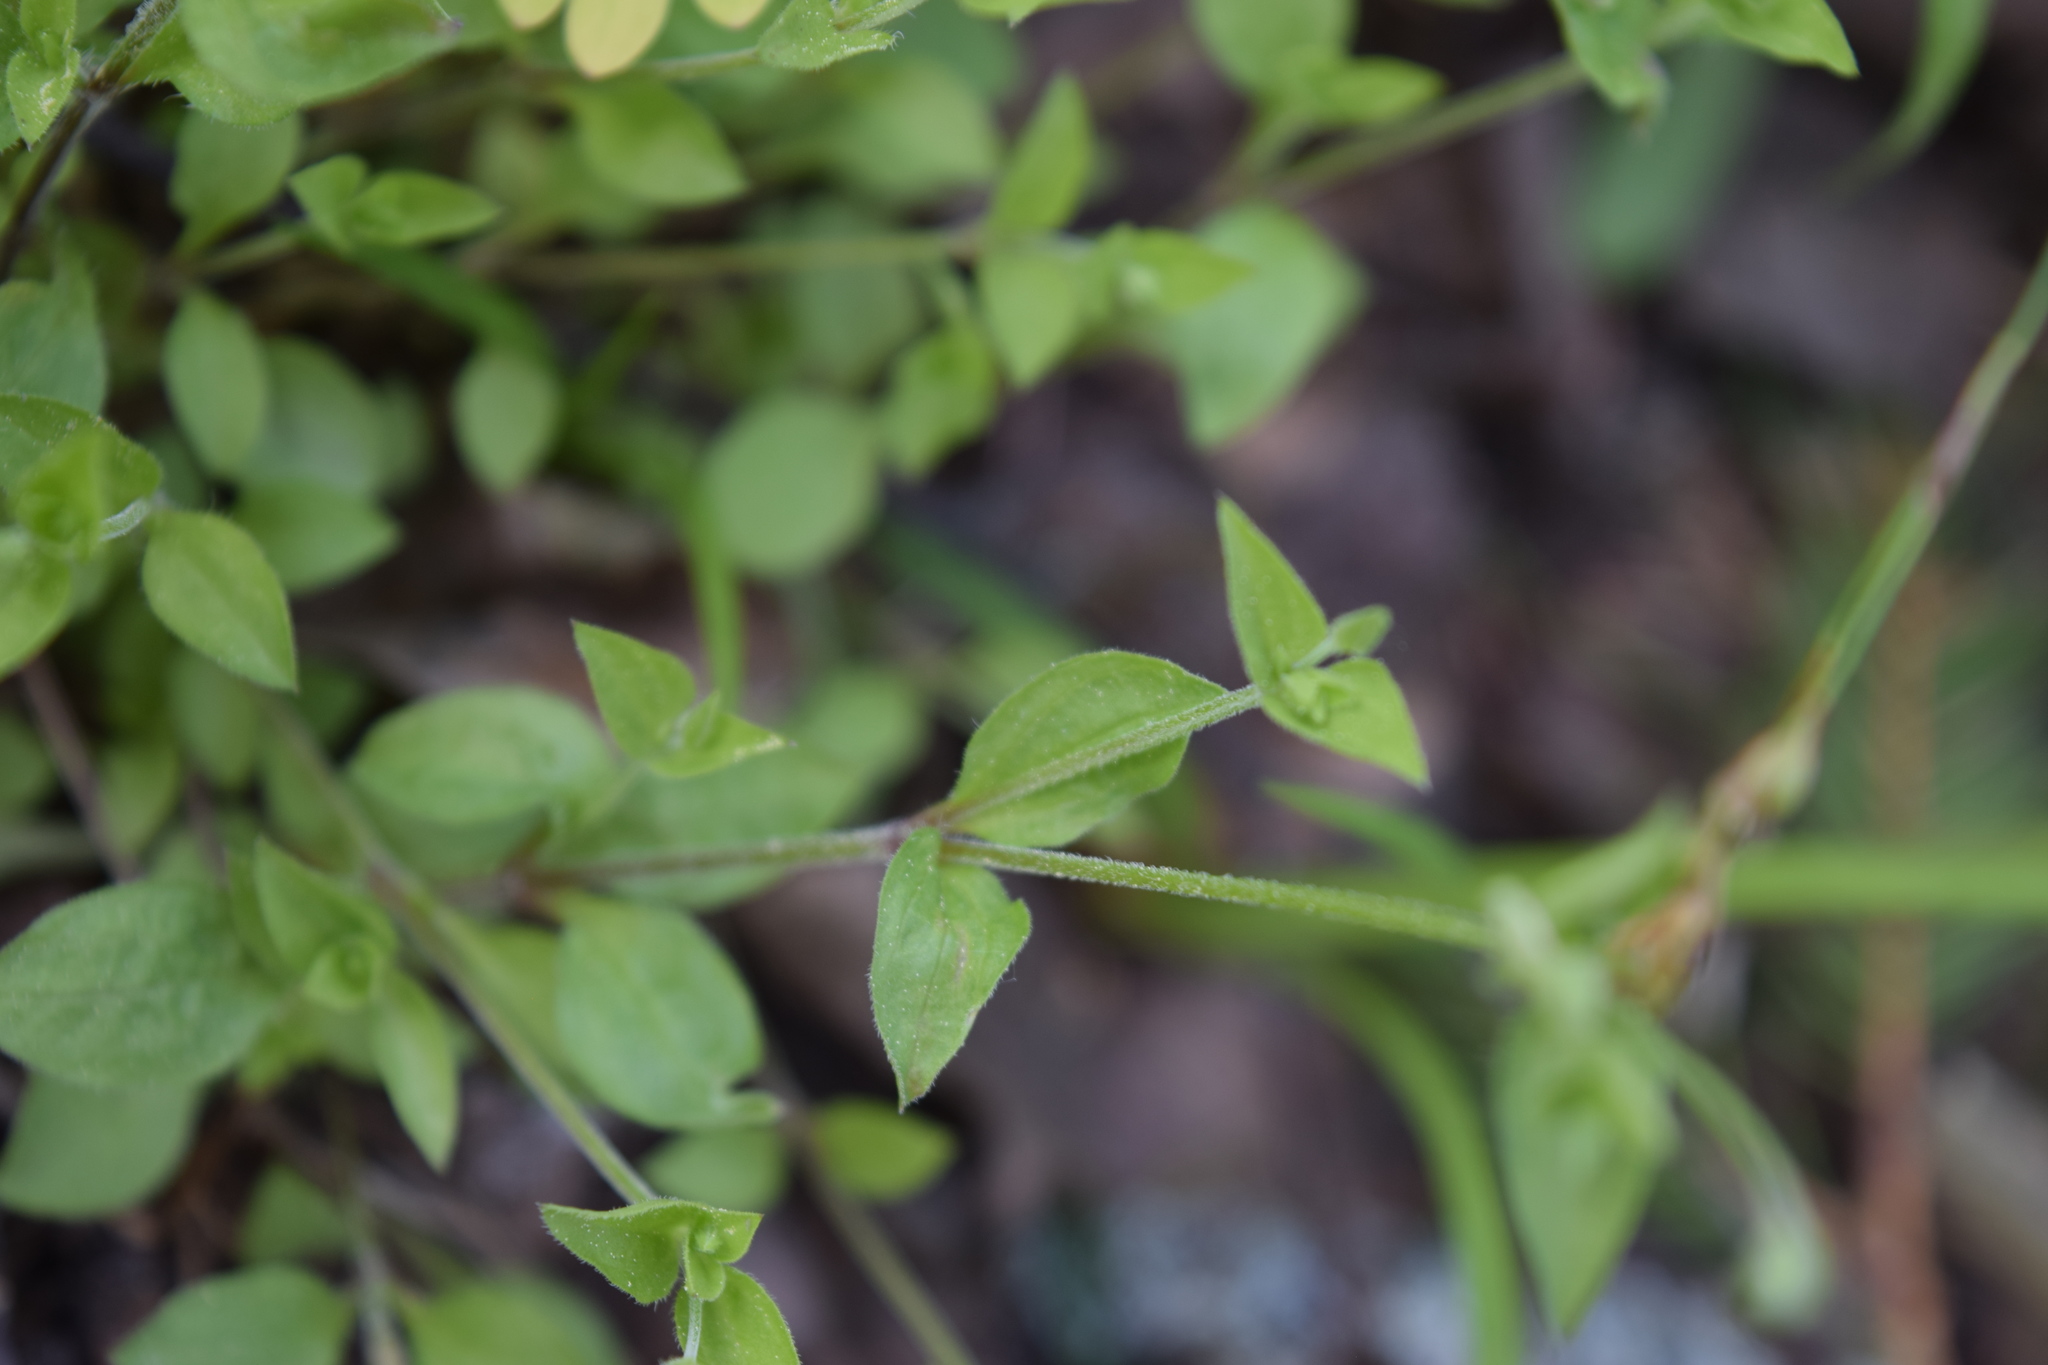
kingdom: Plantae
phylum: Tracheophyta
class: Magnoliopsida
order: Caryophyllales
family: Caryophyllaceae
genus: Moehringia
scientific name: Moehringia trinervia
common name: Three-nerved sandwort
